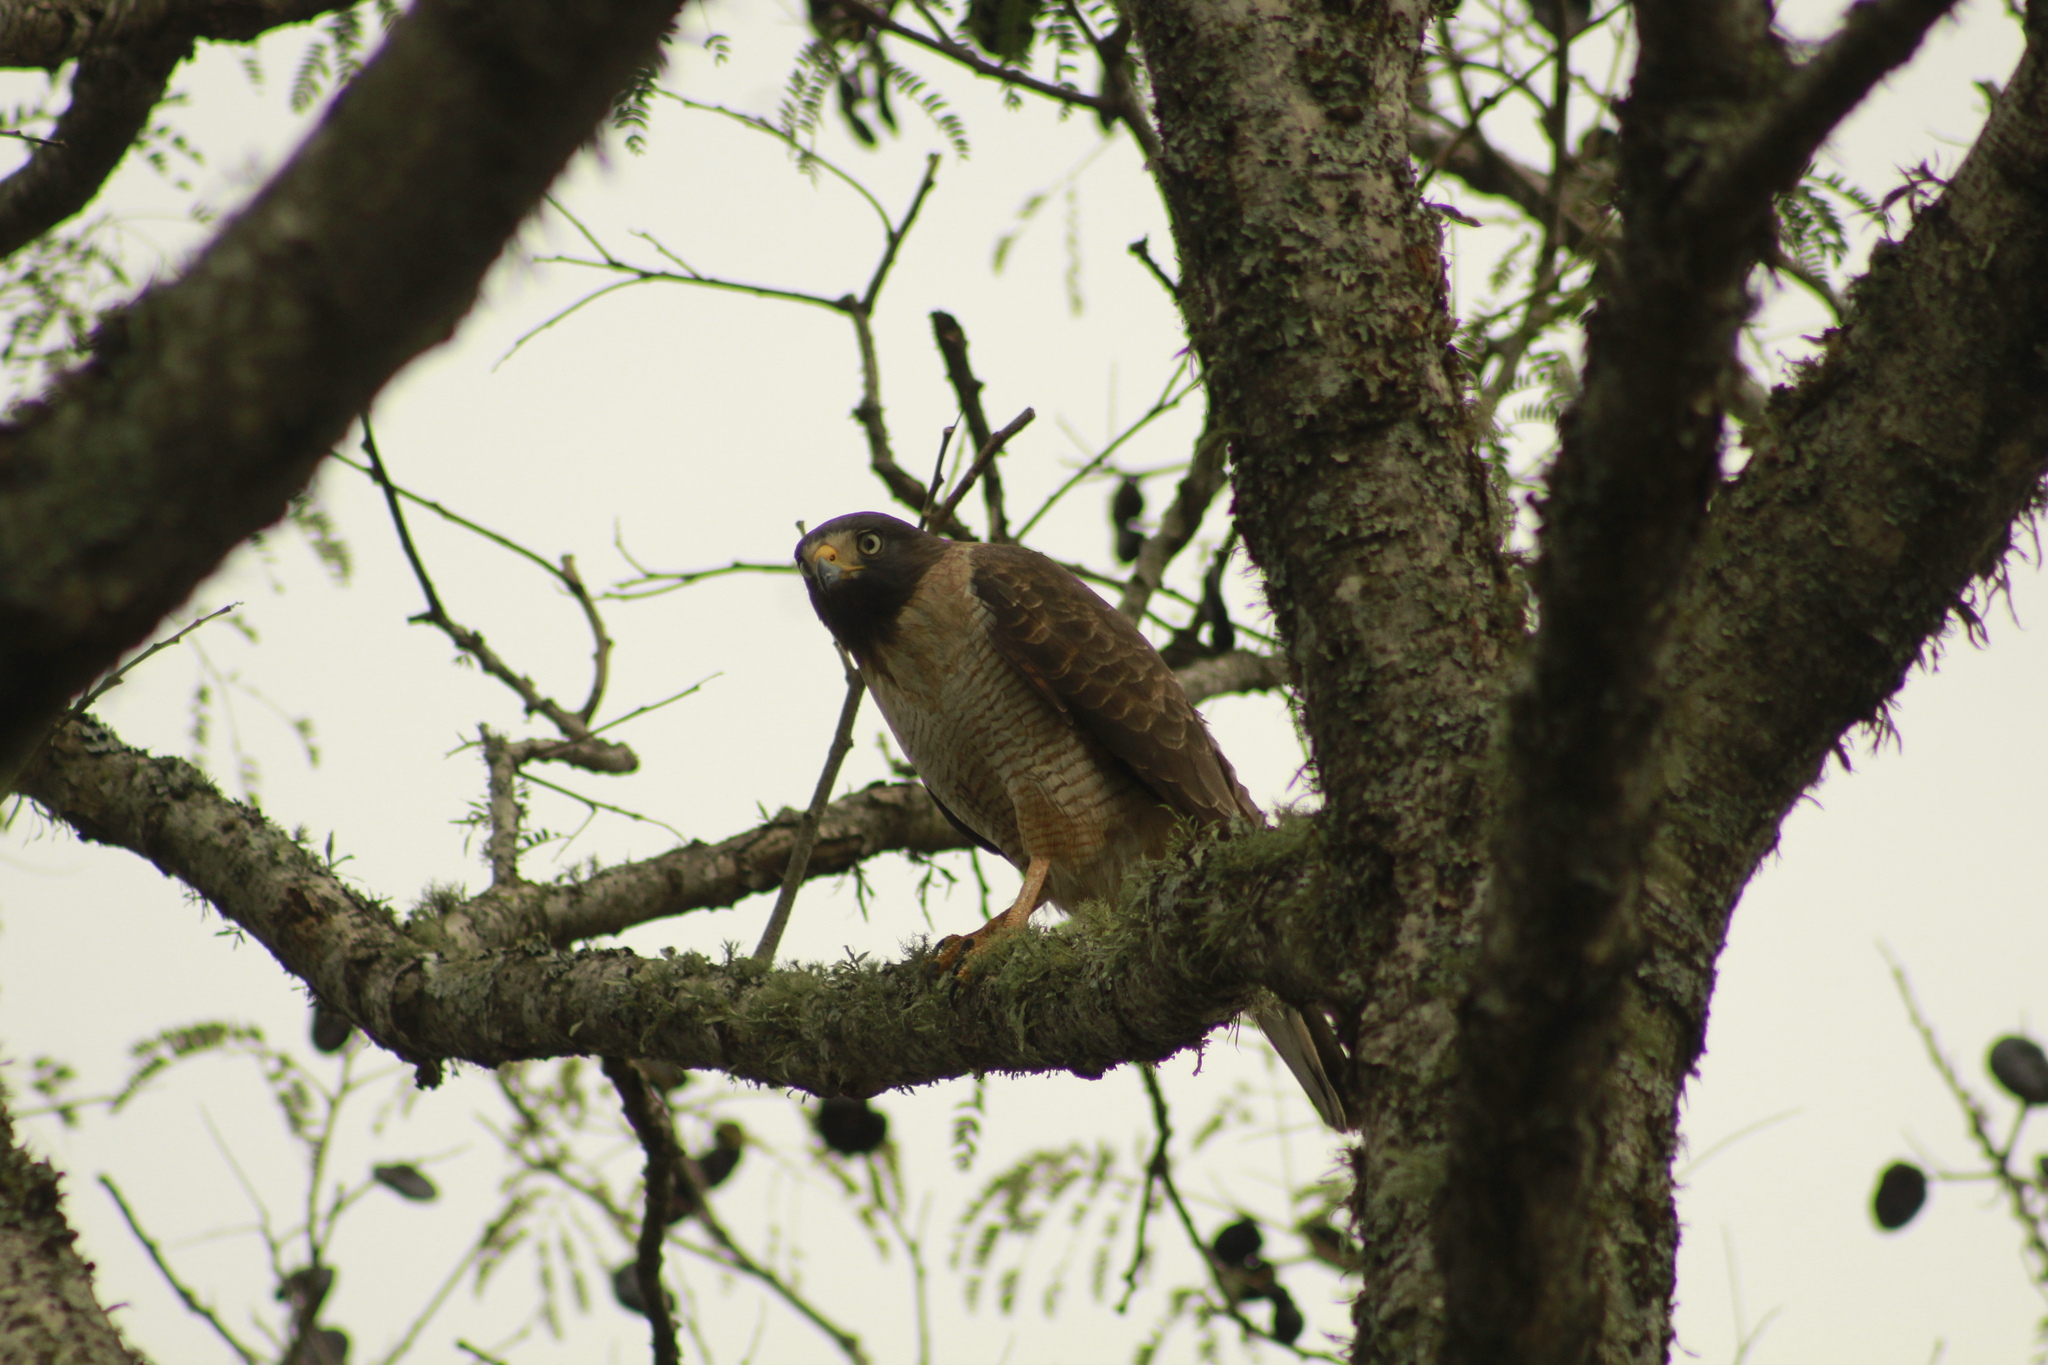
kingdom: Animalia
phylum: Chordata
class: Aves
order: Accipitriformes
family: Accipitridae
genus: Rupornis
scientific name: Rupornis magnirostris
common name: Roadside hawk
